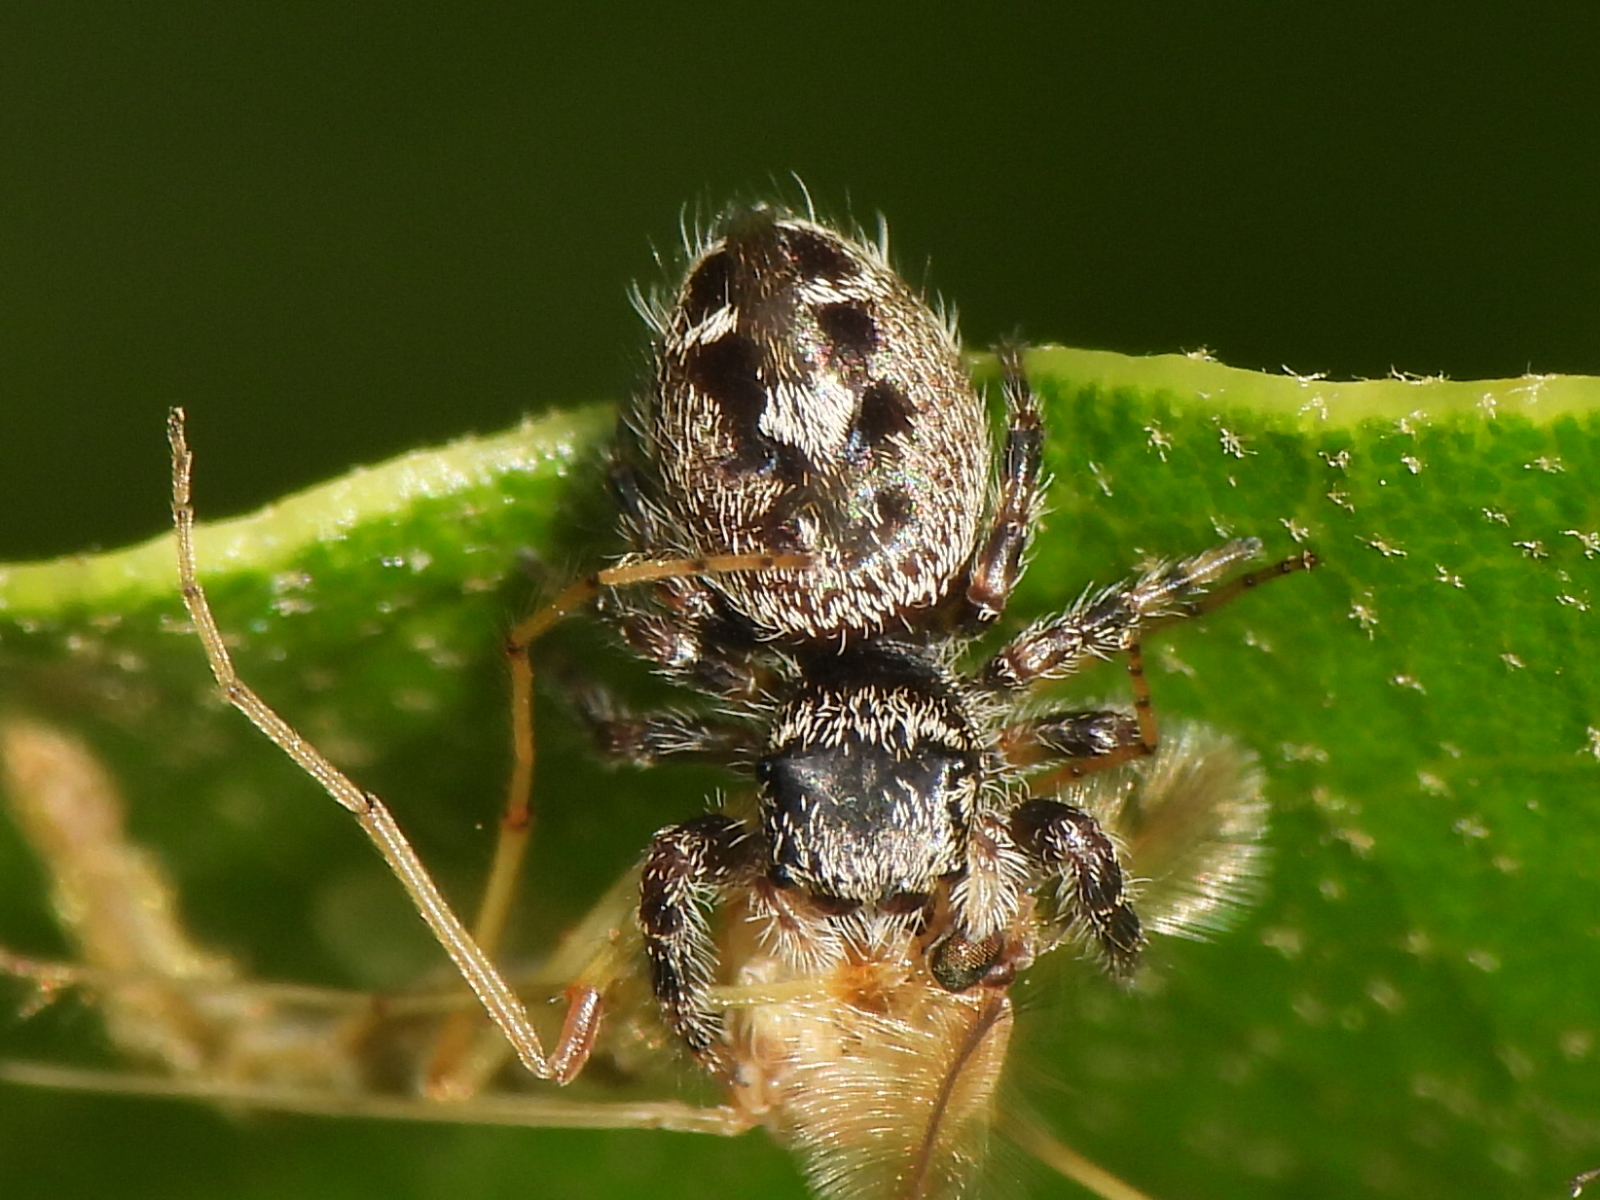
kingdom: Animalia
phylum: Arthropoda
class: Arachnida
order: Araneae
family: Salticidae
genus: Phidippus
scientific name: Phidippus putnami
